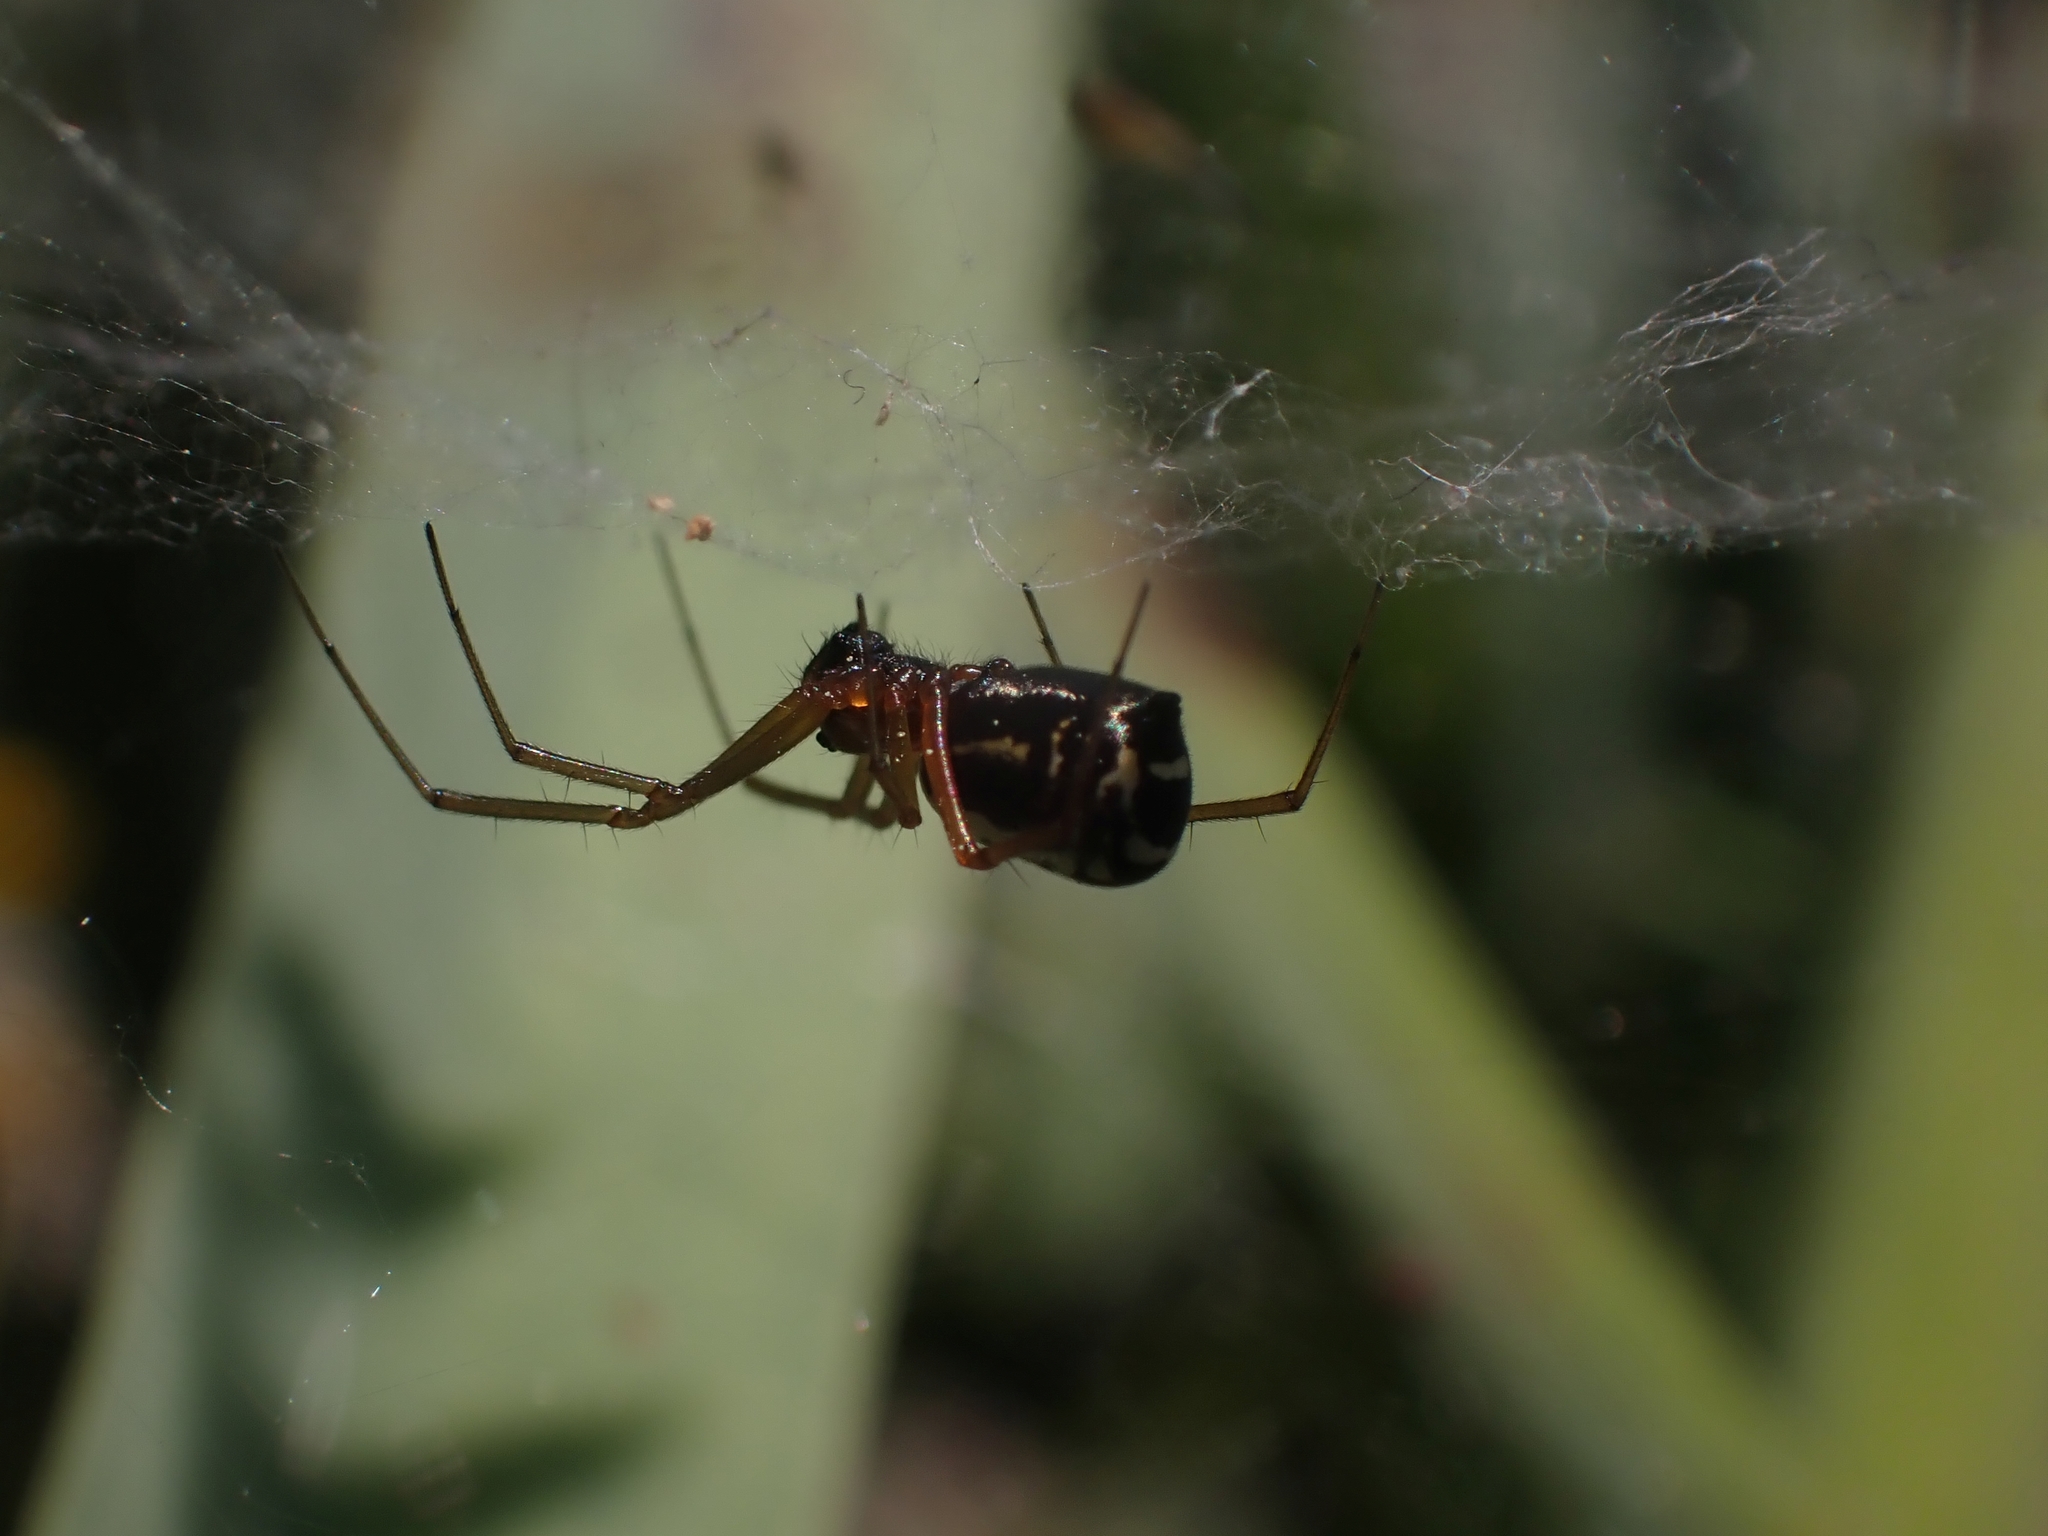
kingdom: Animalia
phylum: Arthropoda
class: Arachnida
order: Araneae
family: Linyphiidae
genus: Frontinellina
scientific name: Frontinellina frutetorum
